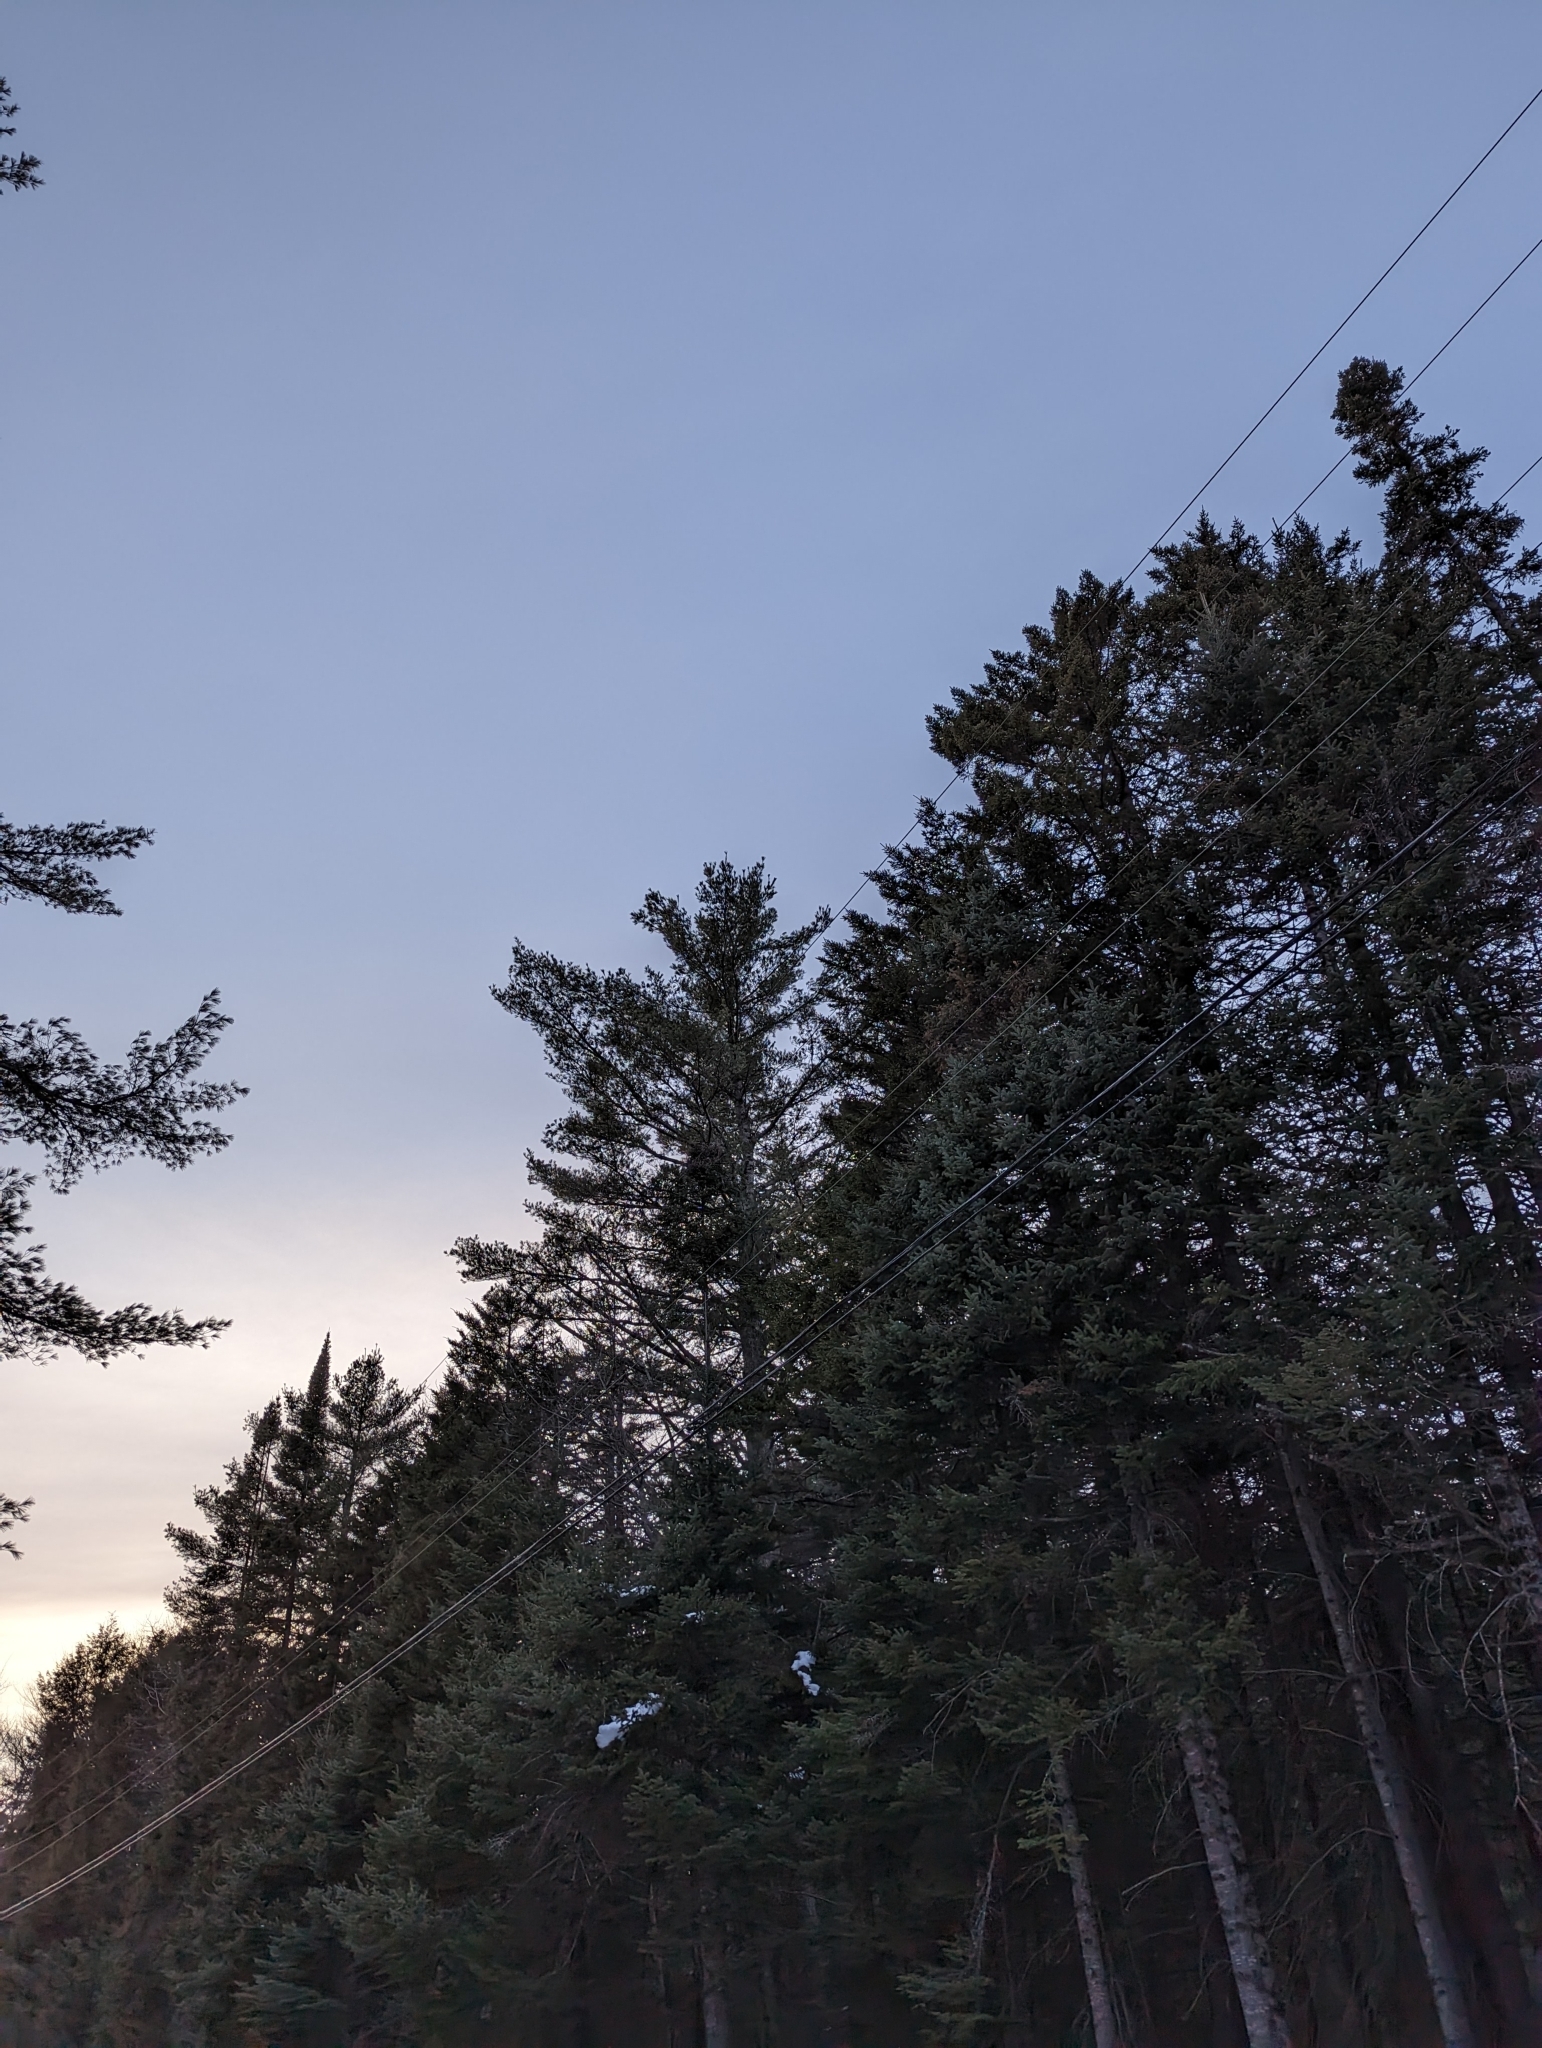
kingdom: Plantae
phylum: Tracheophyta
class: Pinopsida
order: Pinales
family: Pinaceae
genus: Pinus
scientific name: Pinus strobus
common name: Weymouth pine
